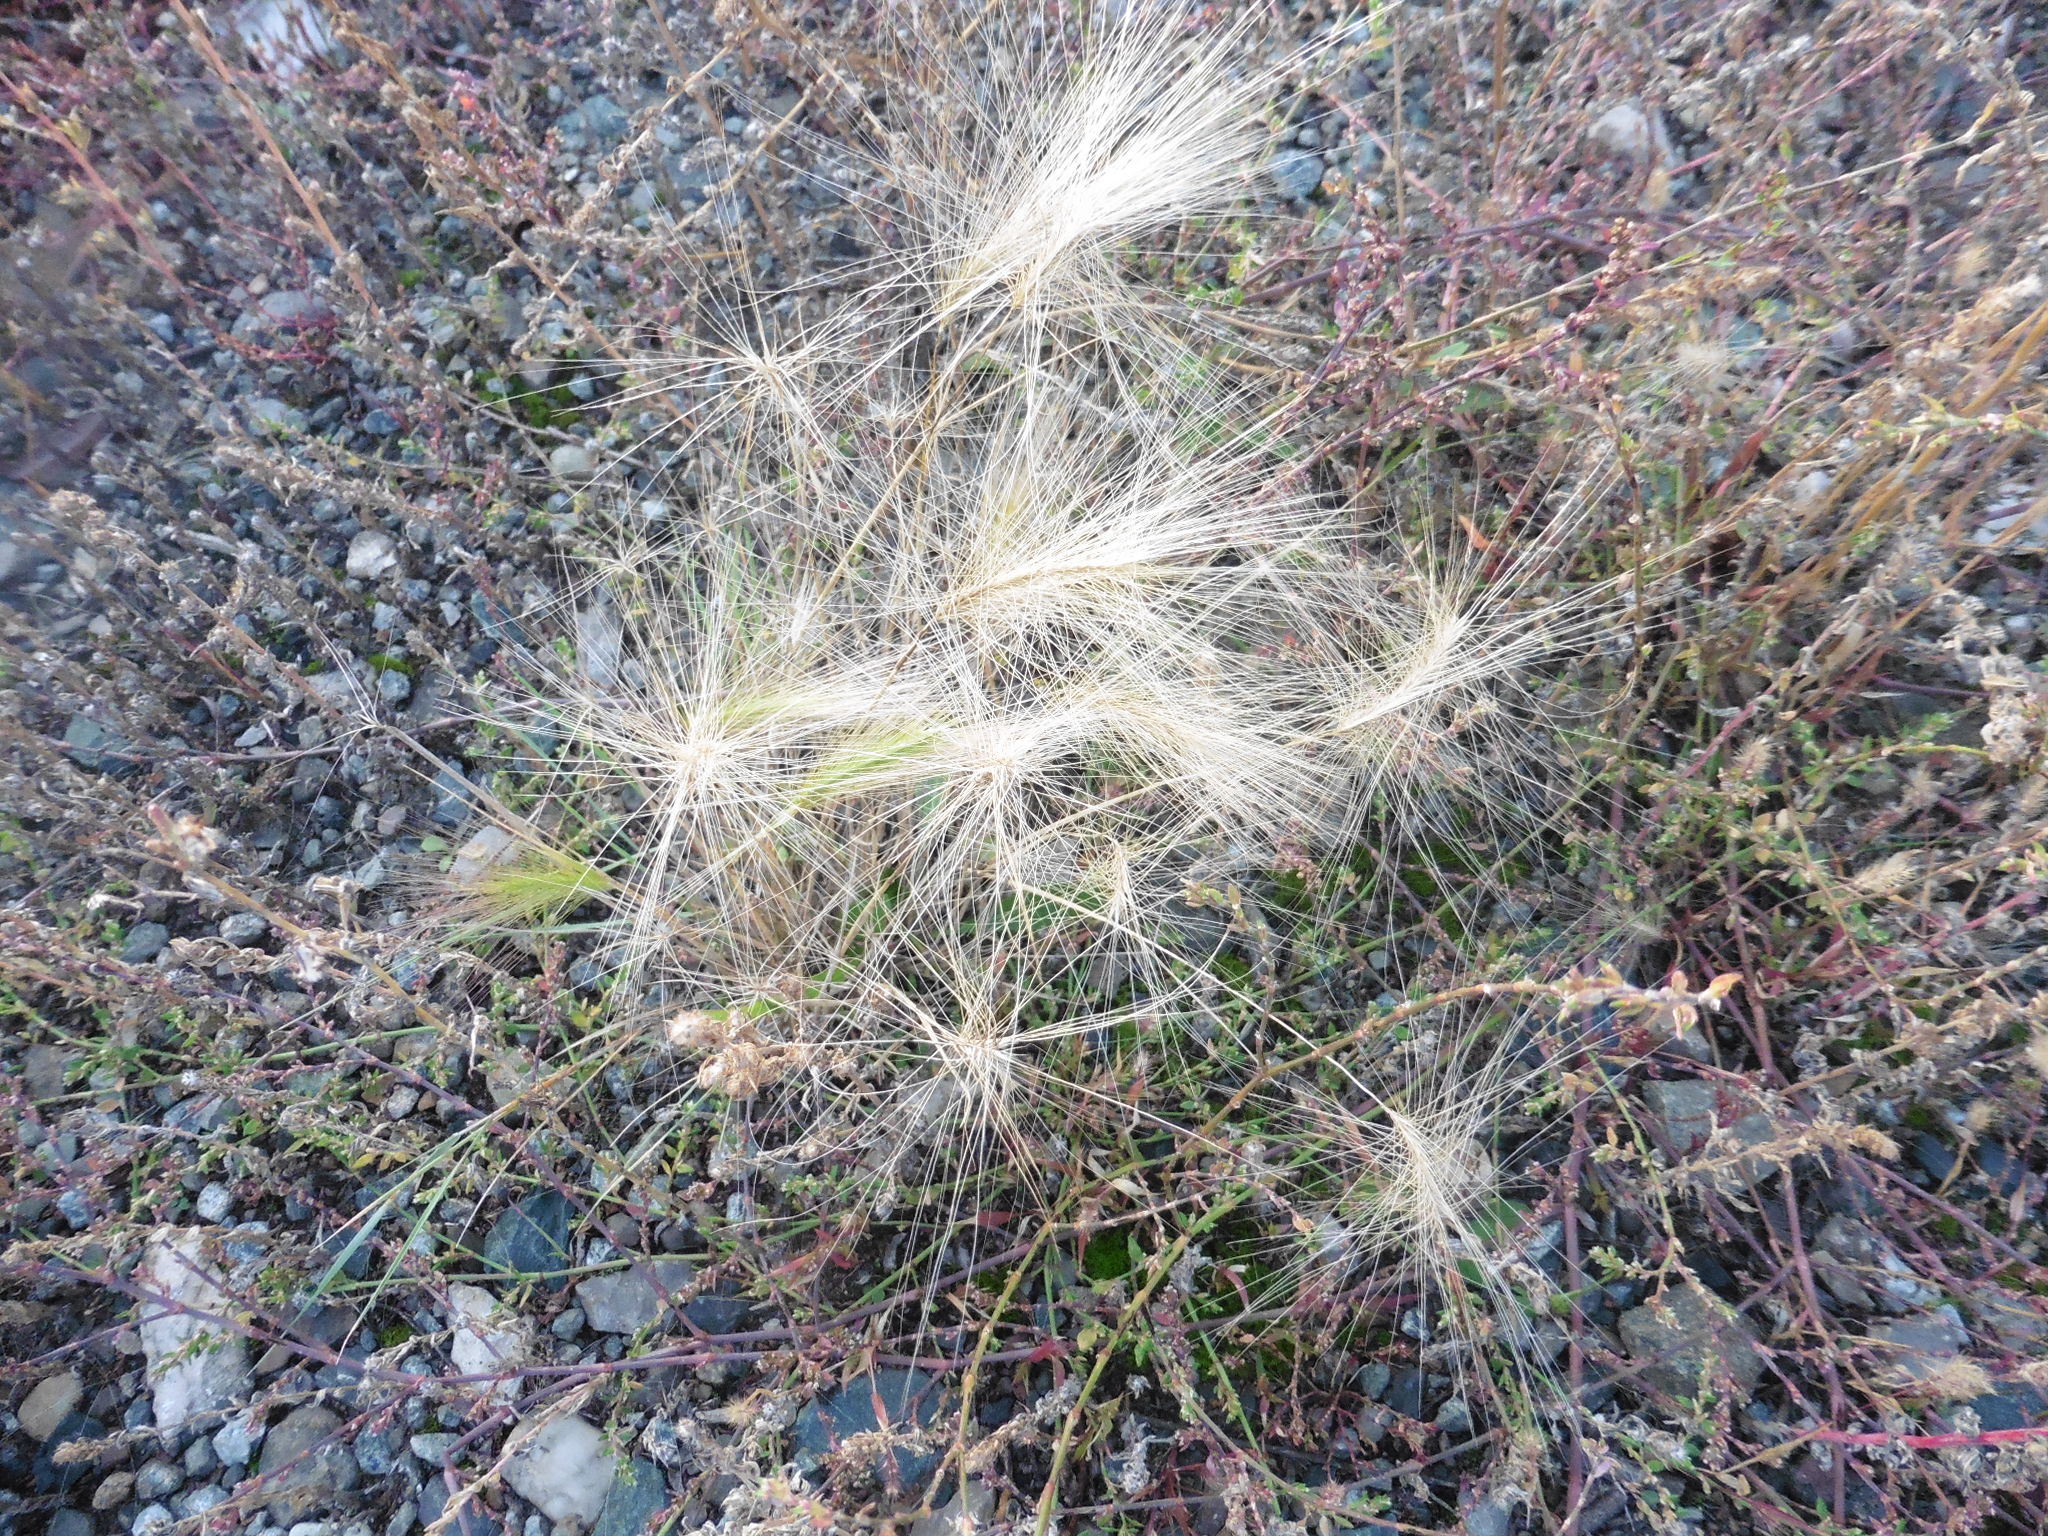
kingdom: Plantae
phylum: Tracheophyta
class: Liliopsida
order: Poales
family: Poaceae
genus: Hordeum
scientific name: Hordeum jubatum
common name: Foxtail barley
